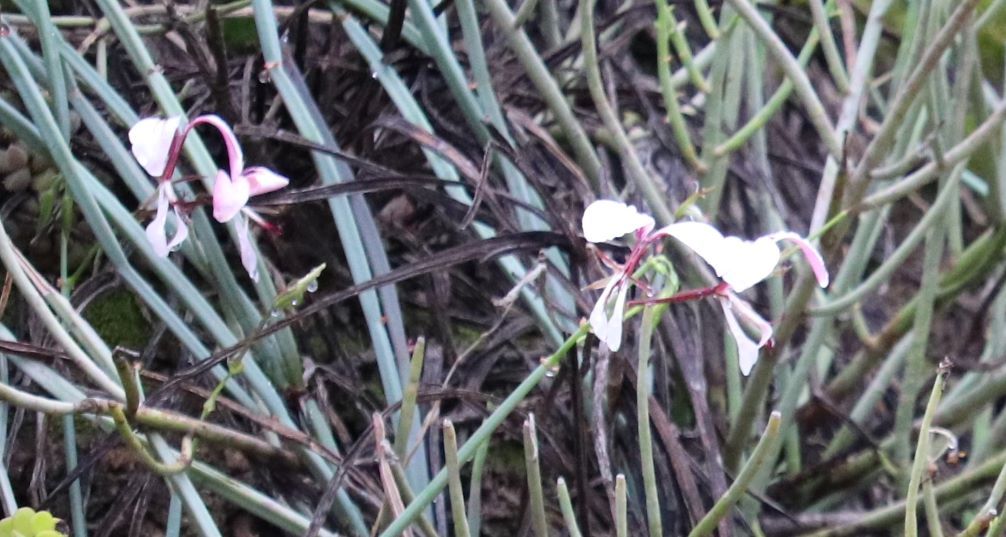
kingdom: Plantae
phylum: Tracheophyta
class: Magnoliopsida
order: Geraniales
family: Geraniaceae
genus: Pelargonium
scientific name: Pelargonium tetragonum
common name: Square-stack crane's-bill
